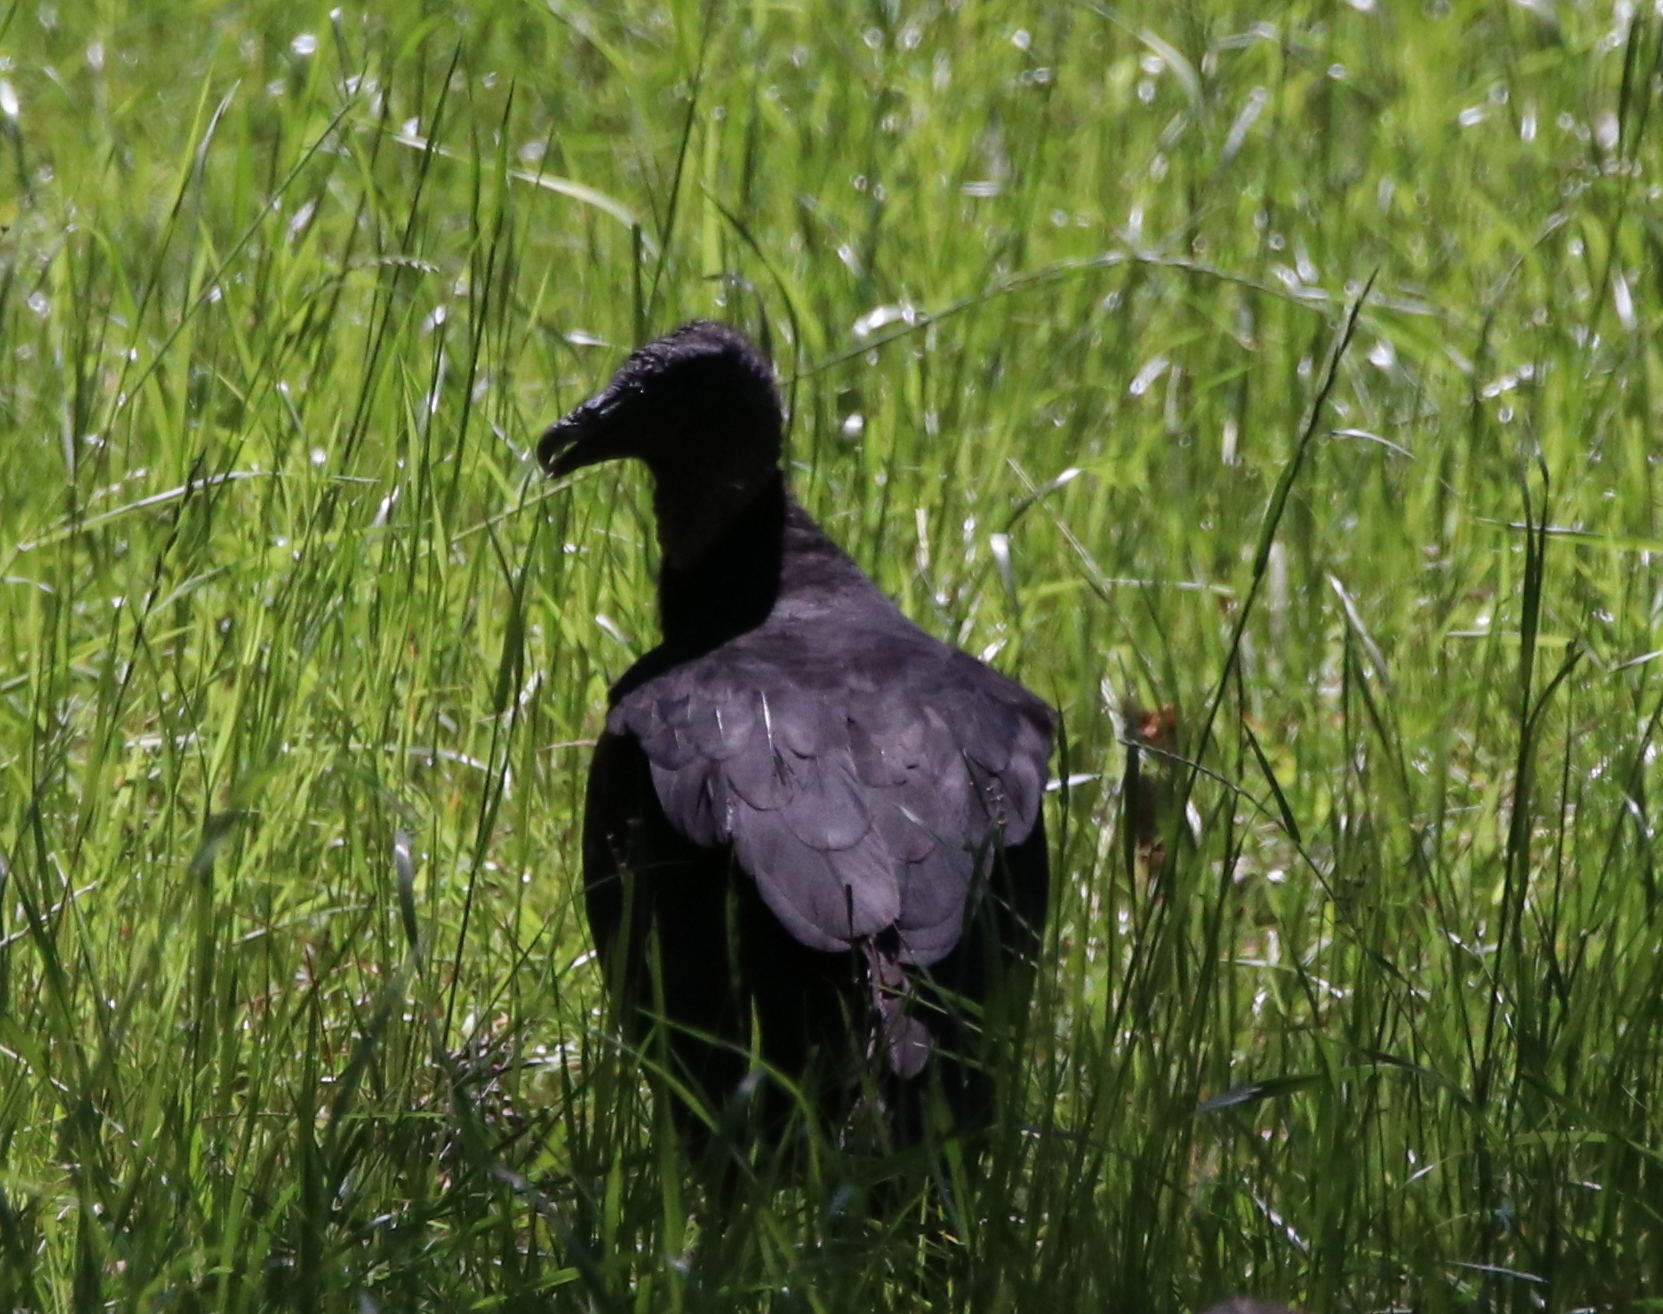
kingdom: Animalia
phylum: Chordata
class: Aves
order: Accipitriformes
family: Cathartidae
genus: Coragyps
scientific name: Coragyps atratus
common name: Black vulture
